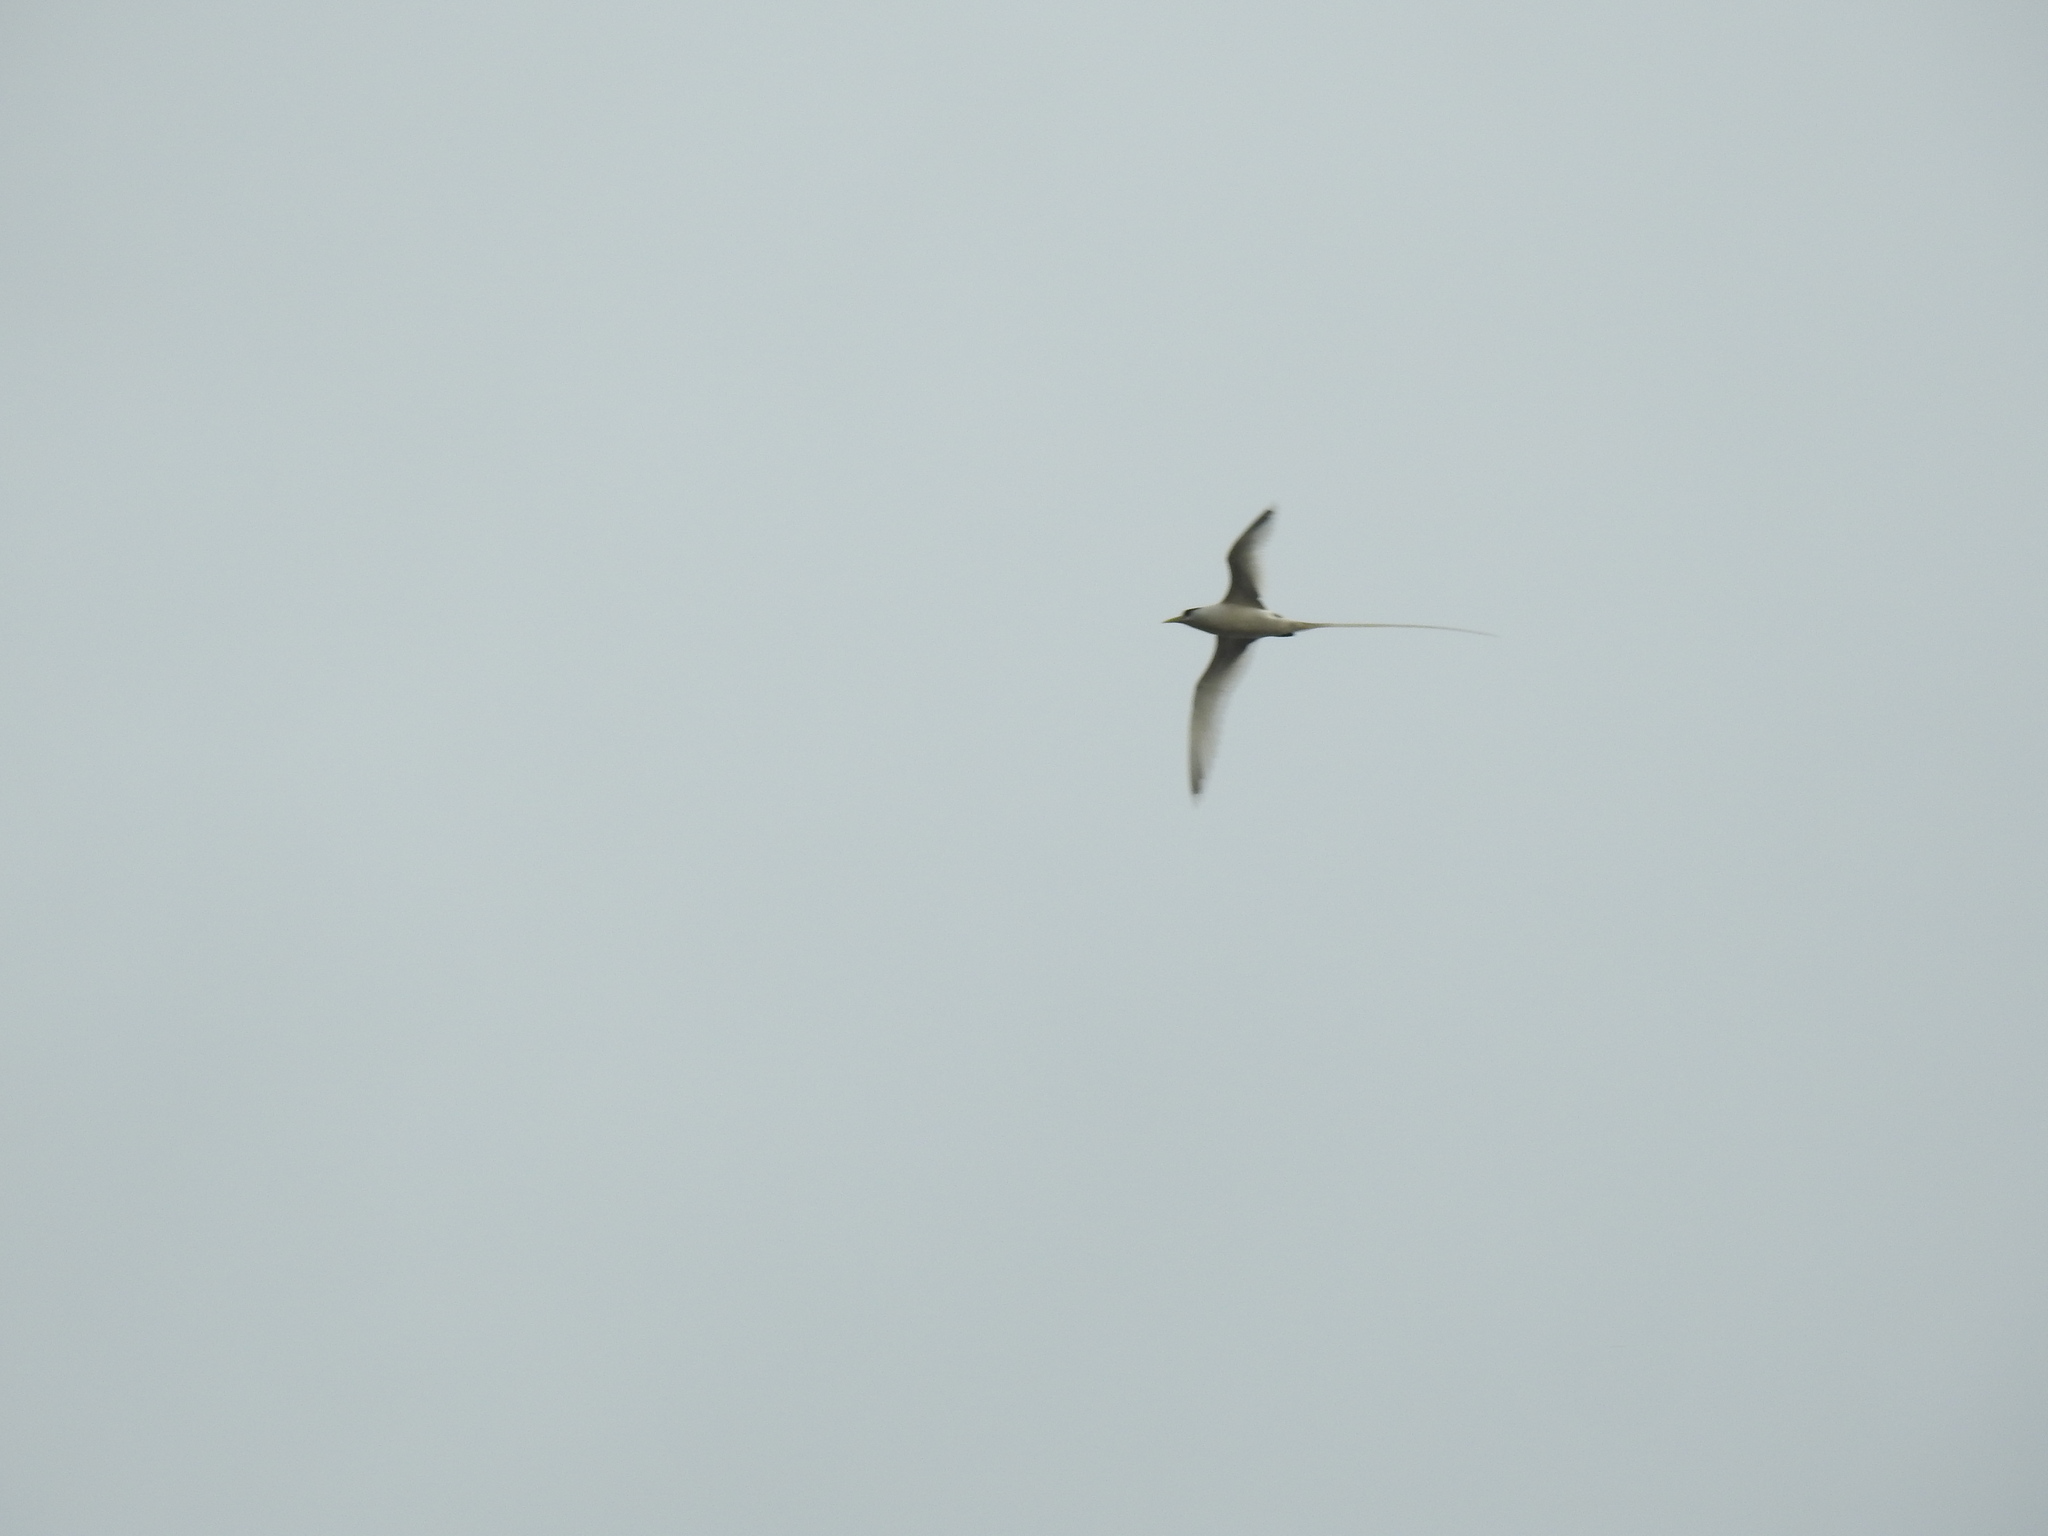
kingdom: Animalia
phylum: Chordata
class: Aves
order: Phaethontiformes
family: Phaethontidae
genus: Phaethon
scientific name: Phaethon lepturus
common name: White-tailed tropicbird
